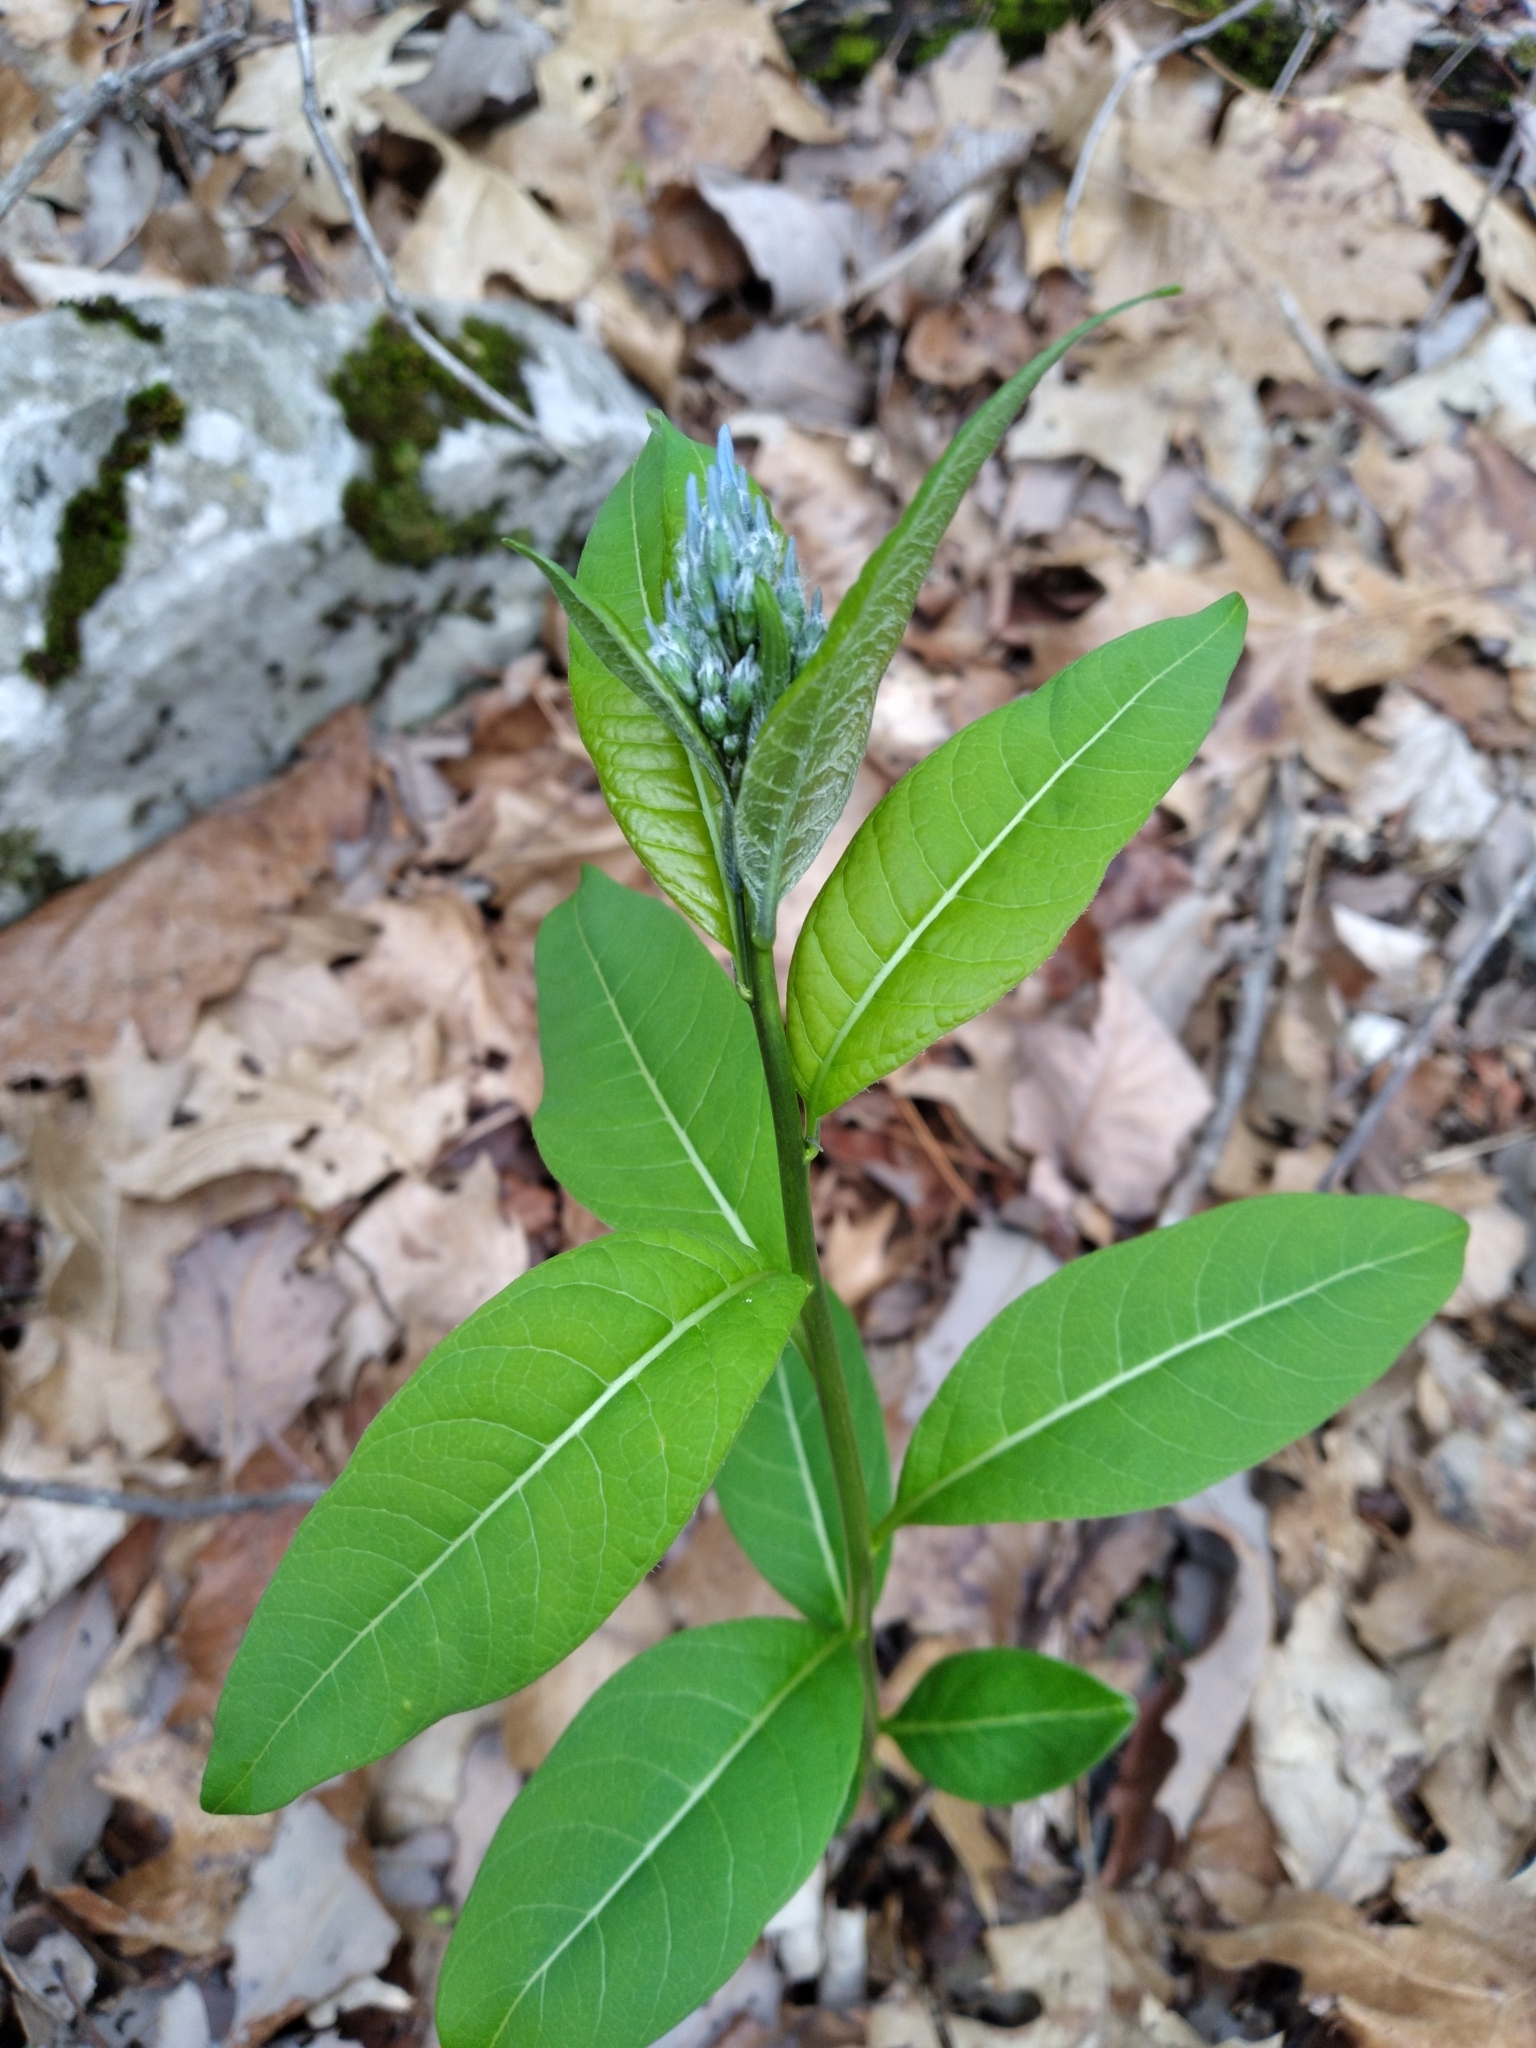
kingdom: Plantae
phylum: Tracheophyta
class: Magnoliopsida
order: Gentianales
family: Apocynaceae
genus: Amsonia
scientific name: Amsonia tabernaemontana
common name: Texas-star
